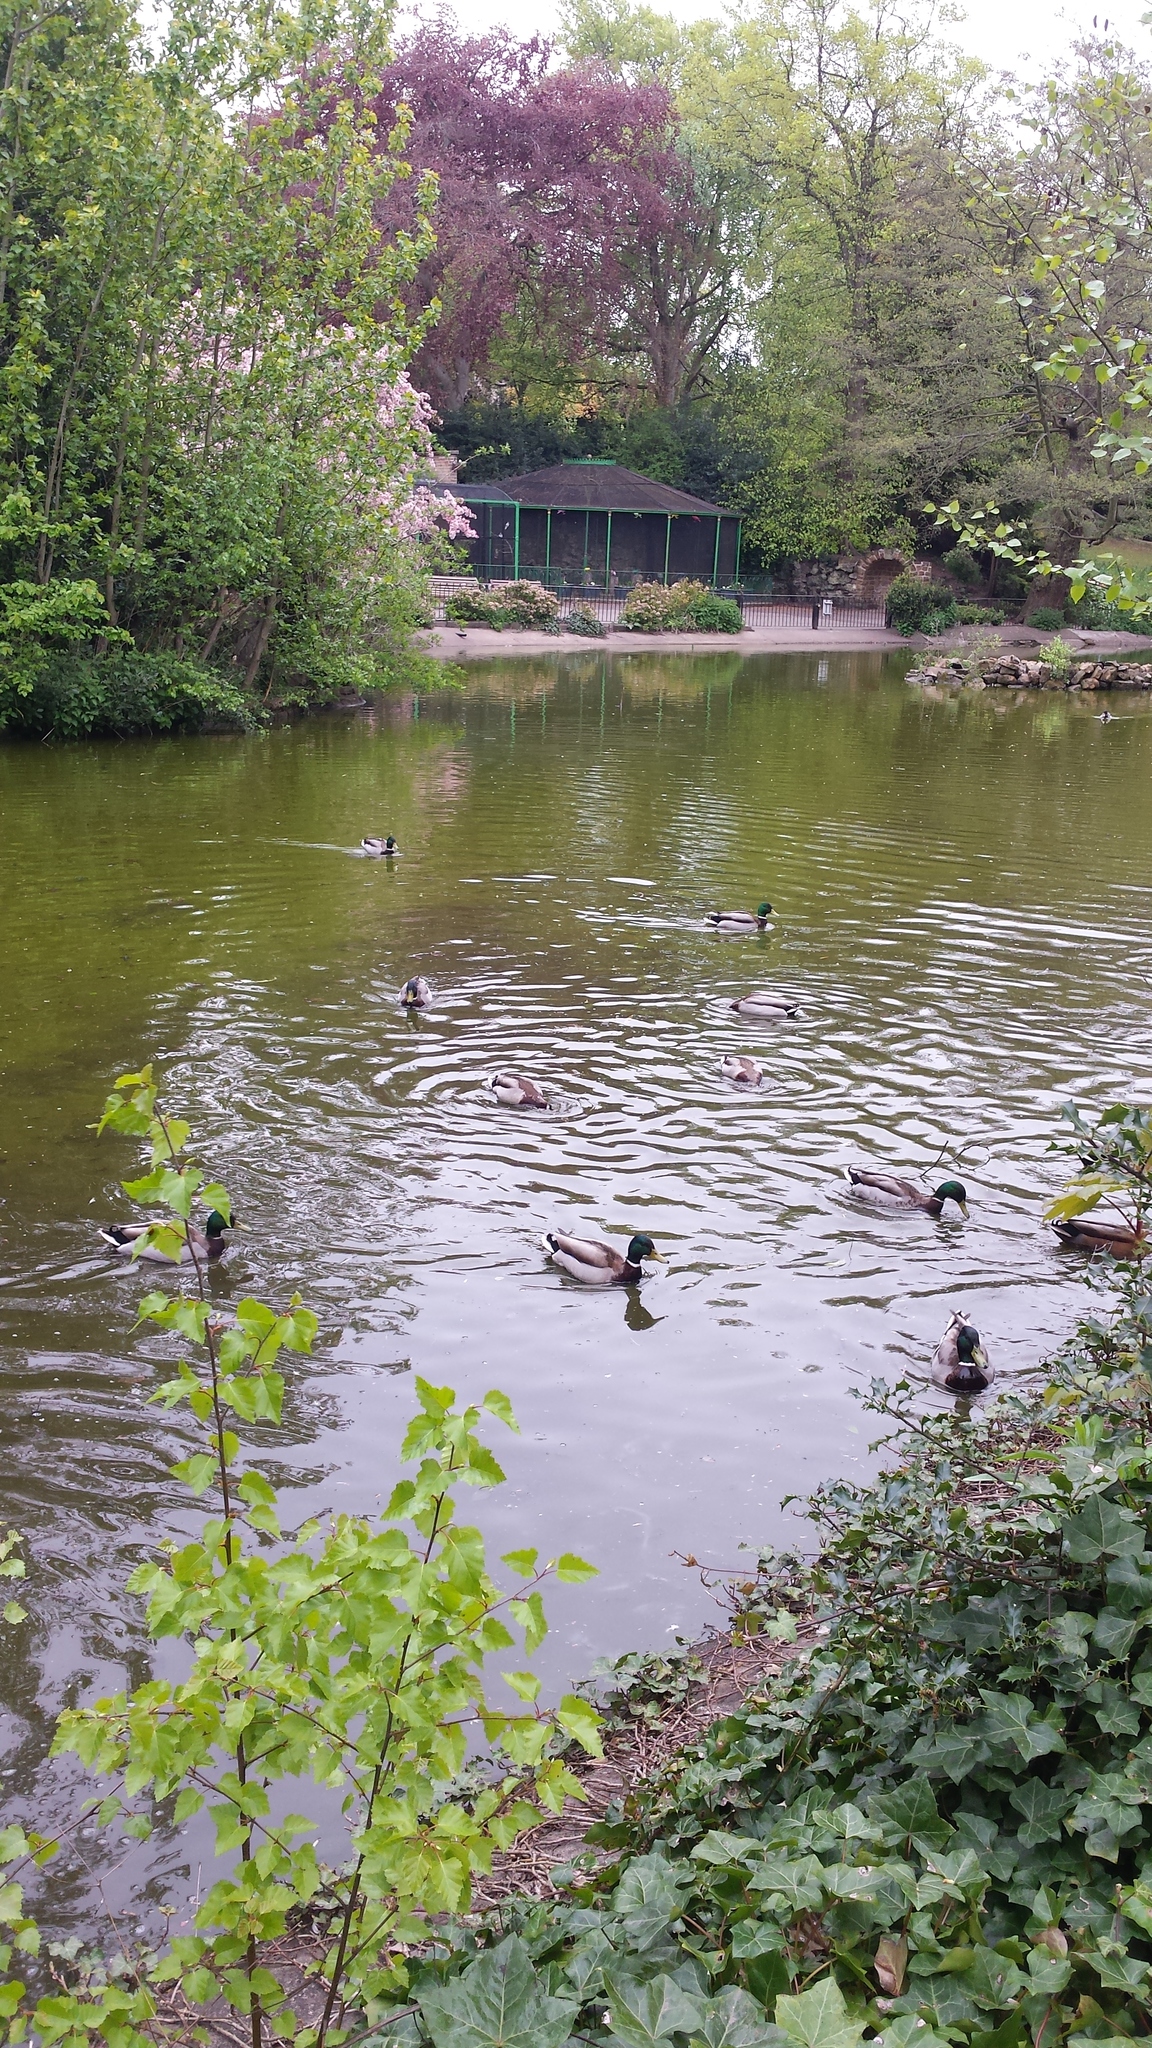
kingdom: Animalia
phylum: Chordata
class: Aves
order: Anseriformes
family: Anatidae
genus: Anas
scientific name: Anas platyrhynchos
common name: Mallard
